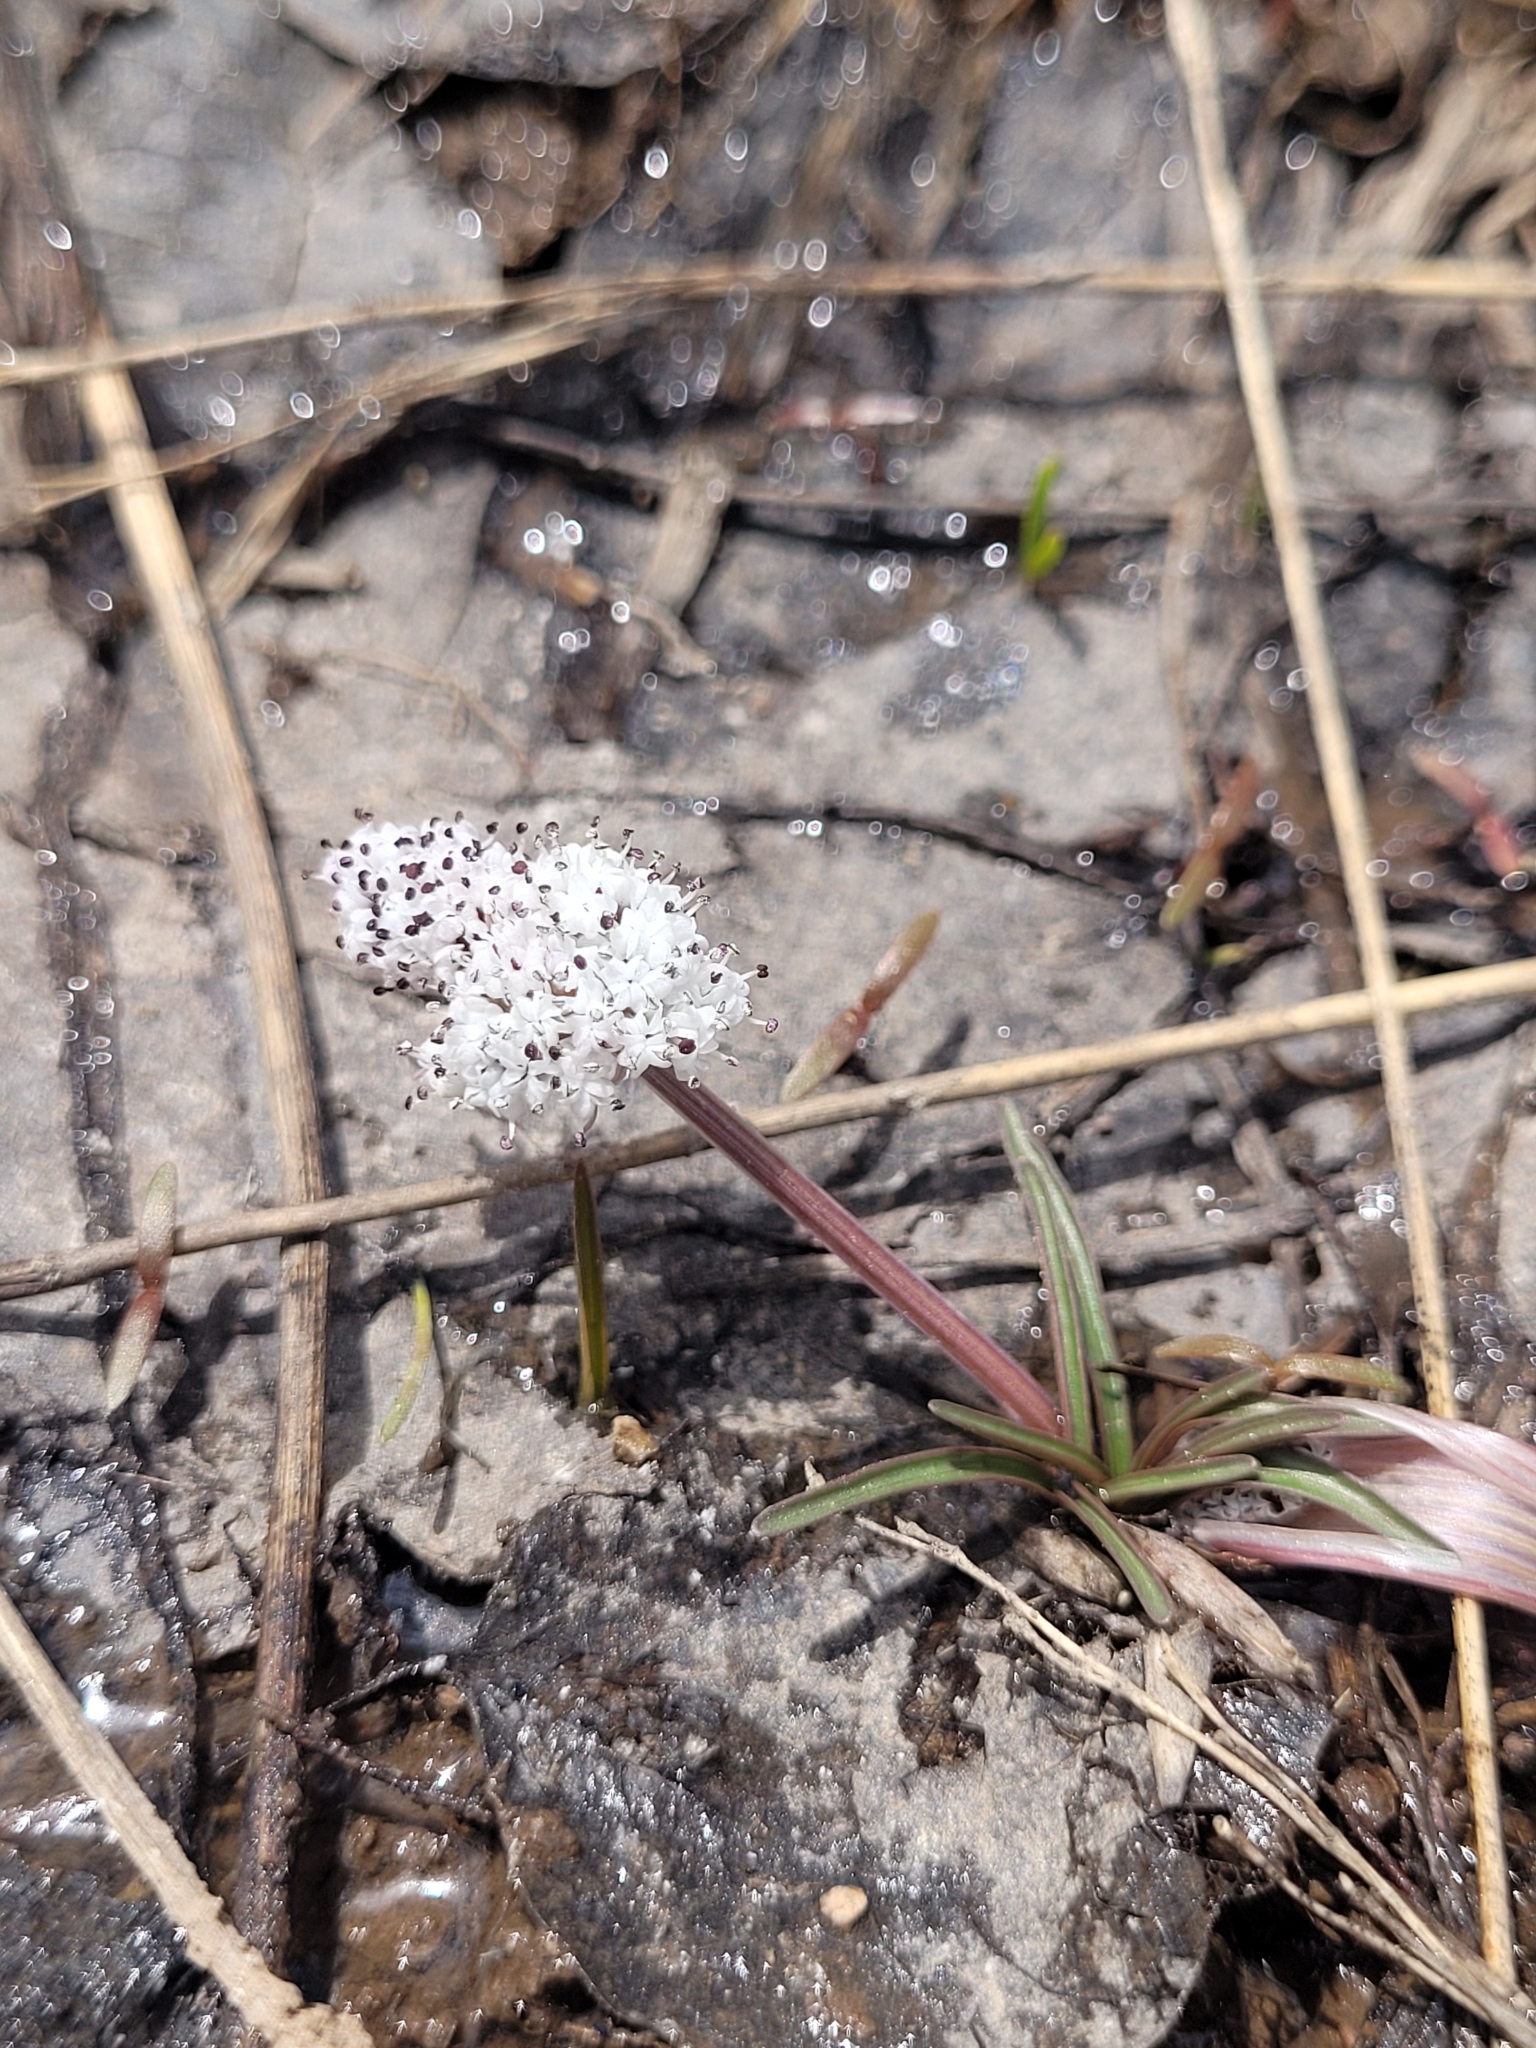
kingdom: Plantae
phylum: Tracheophyta
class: Magnoliopsida
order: Apiales
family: Apiaceae
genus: Lomatium
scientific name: Lomatium linearifolium
